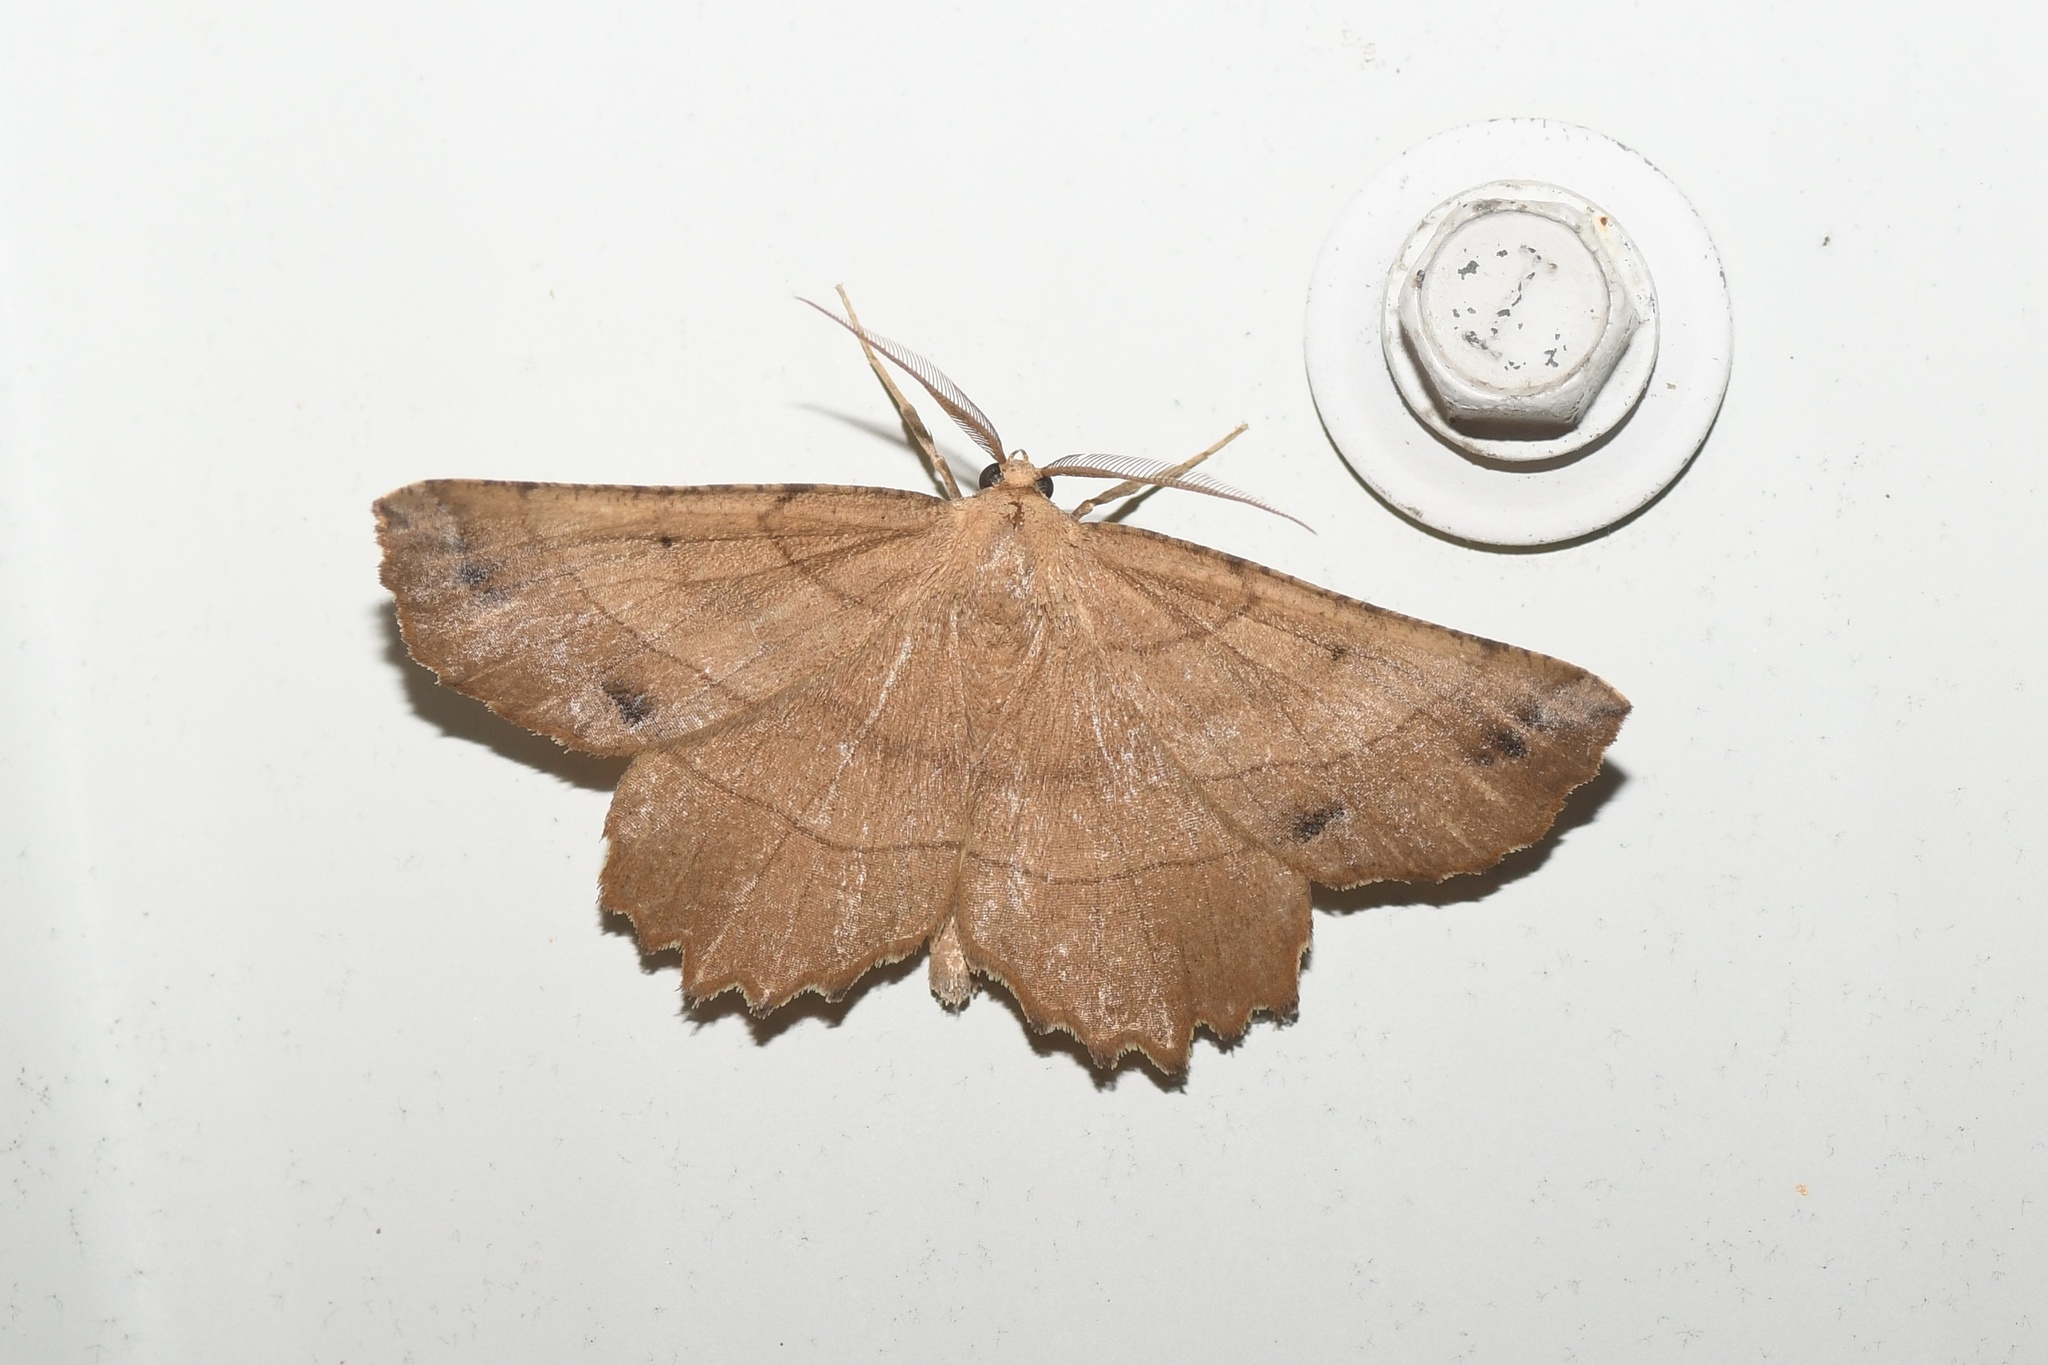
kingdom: Animalia
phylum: Arthropoda
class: Insecta
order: Lepidoptera
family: Geometridae
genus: Euchlaena
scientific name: Euchlaena johnsonaria
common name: Johnson's euchlaena
